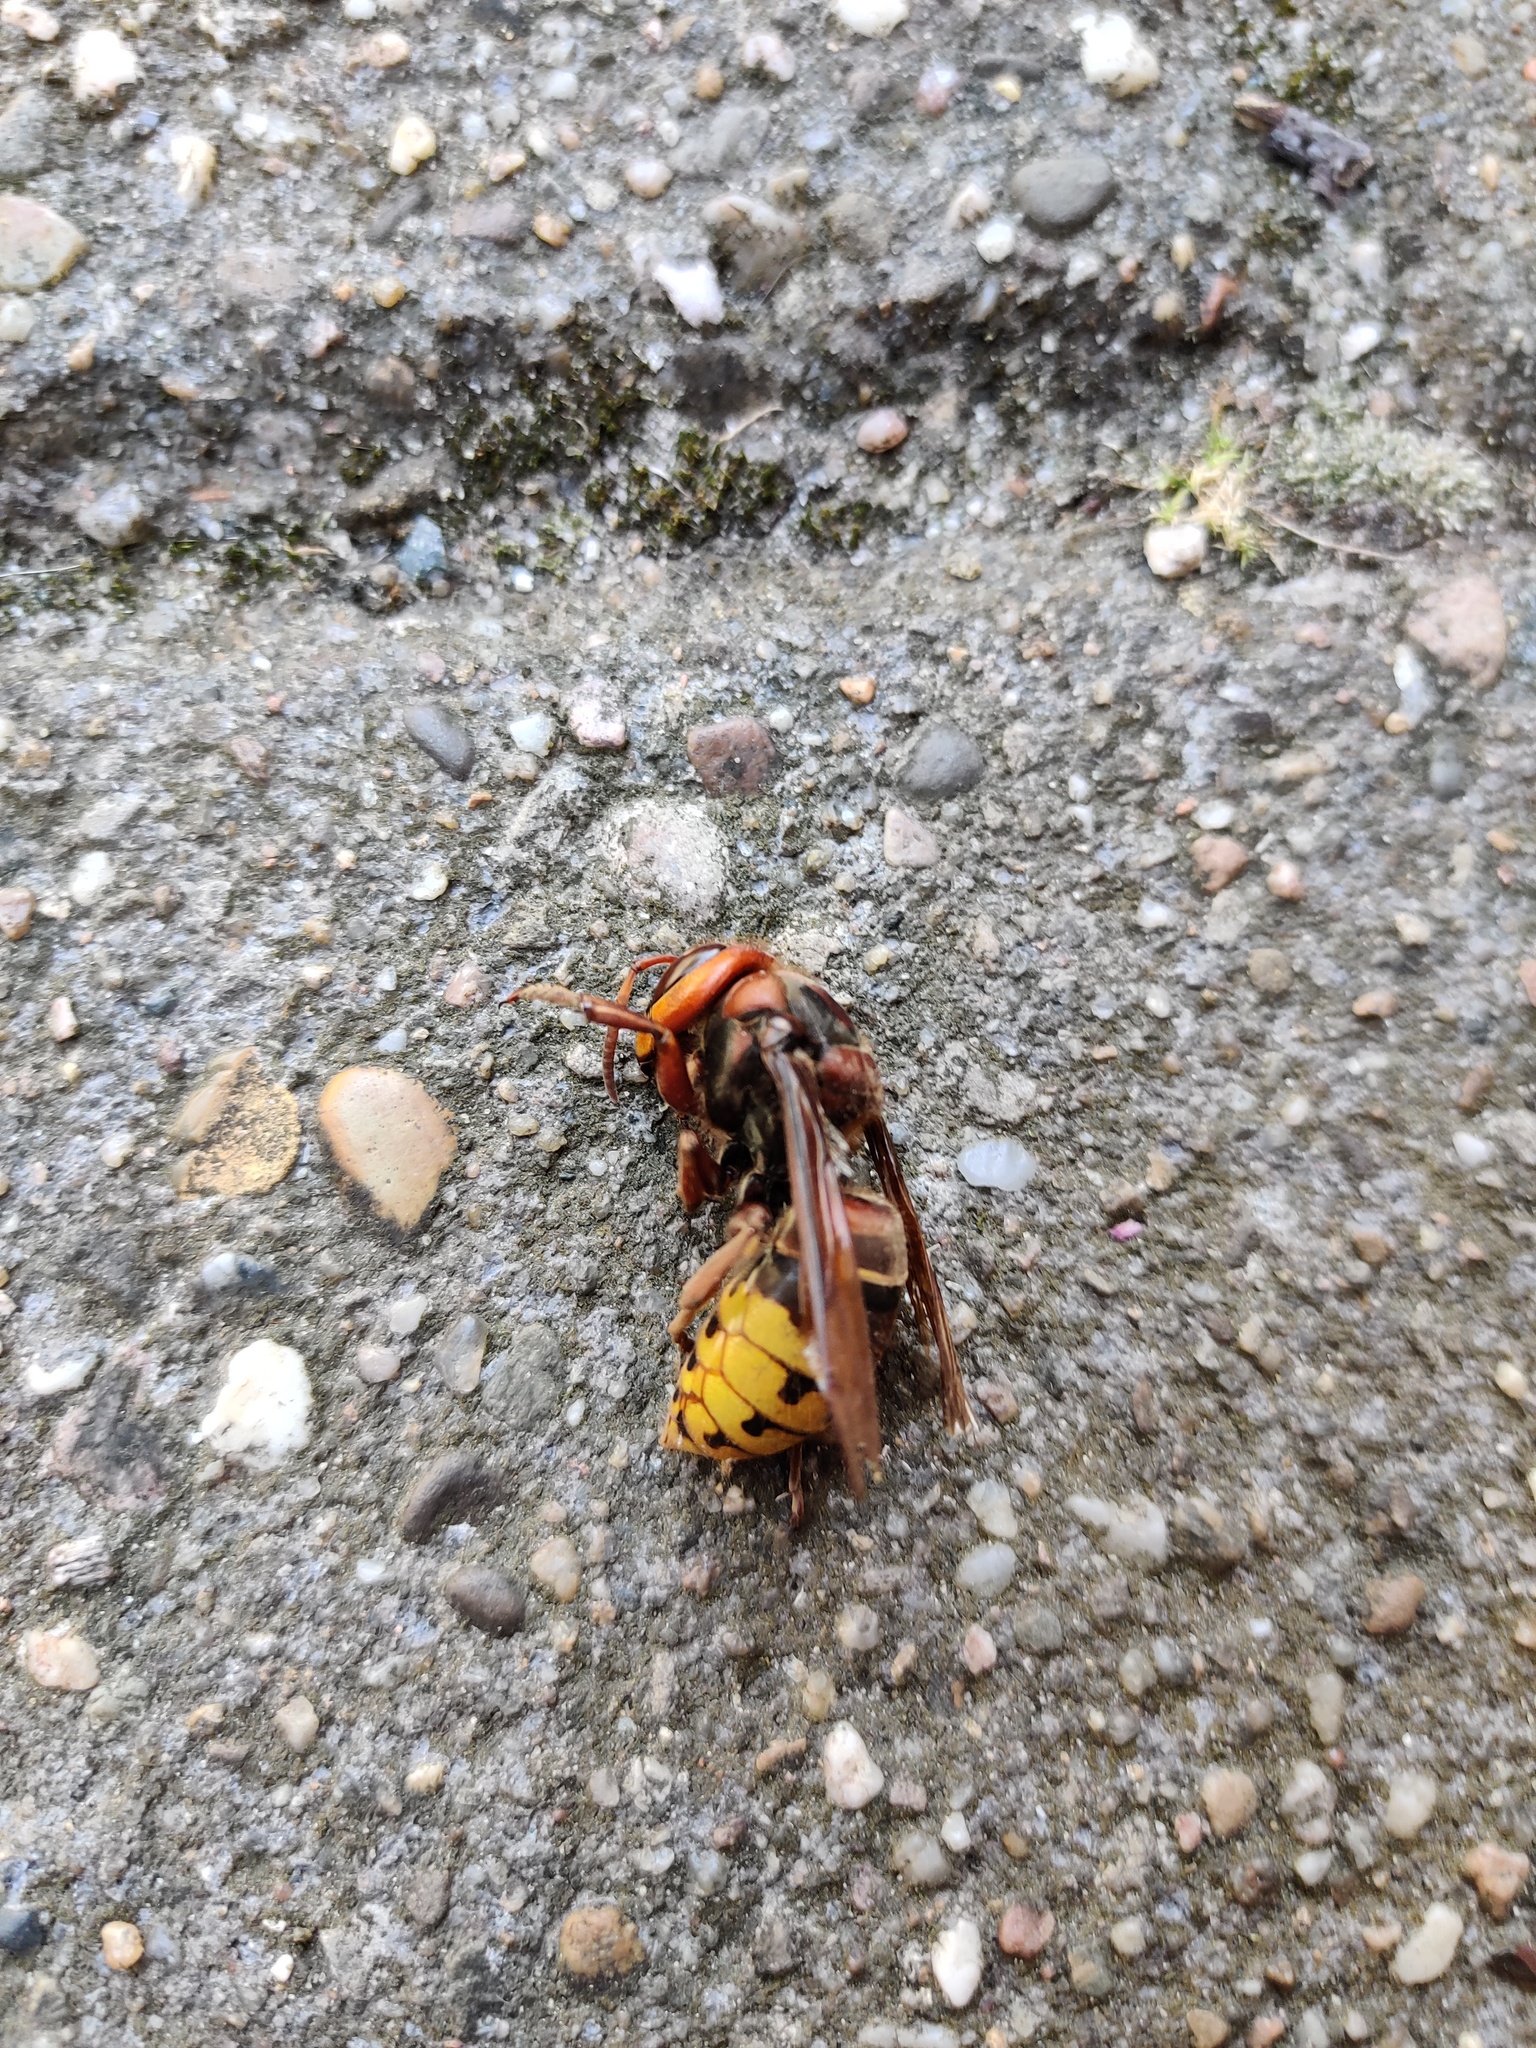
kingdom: Animalia
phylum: Arthropoda
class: Insecta
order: Hymenoptera
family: Vespidae
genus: Vespa
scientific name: Vespa crabro
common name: Hornet
